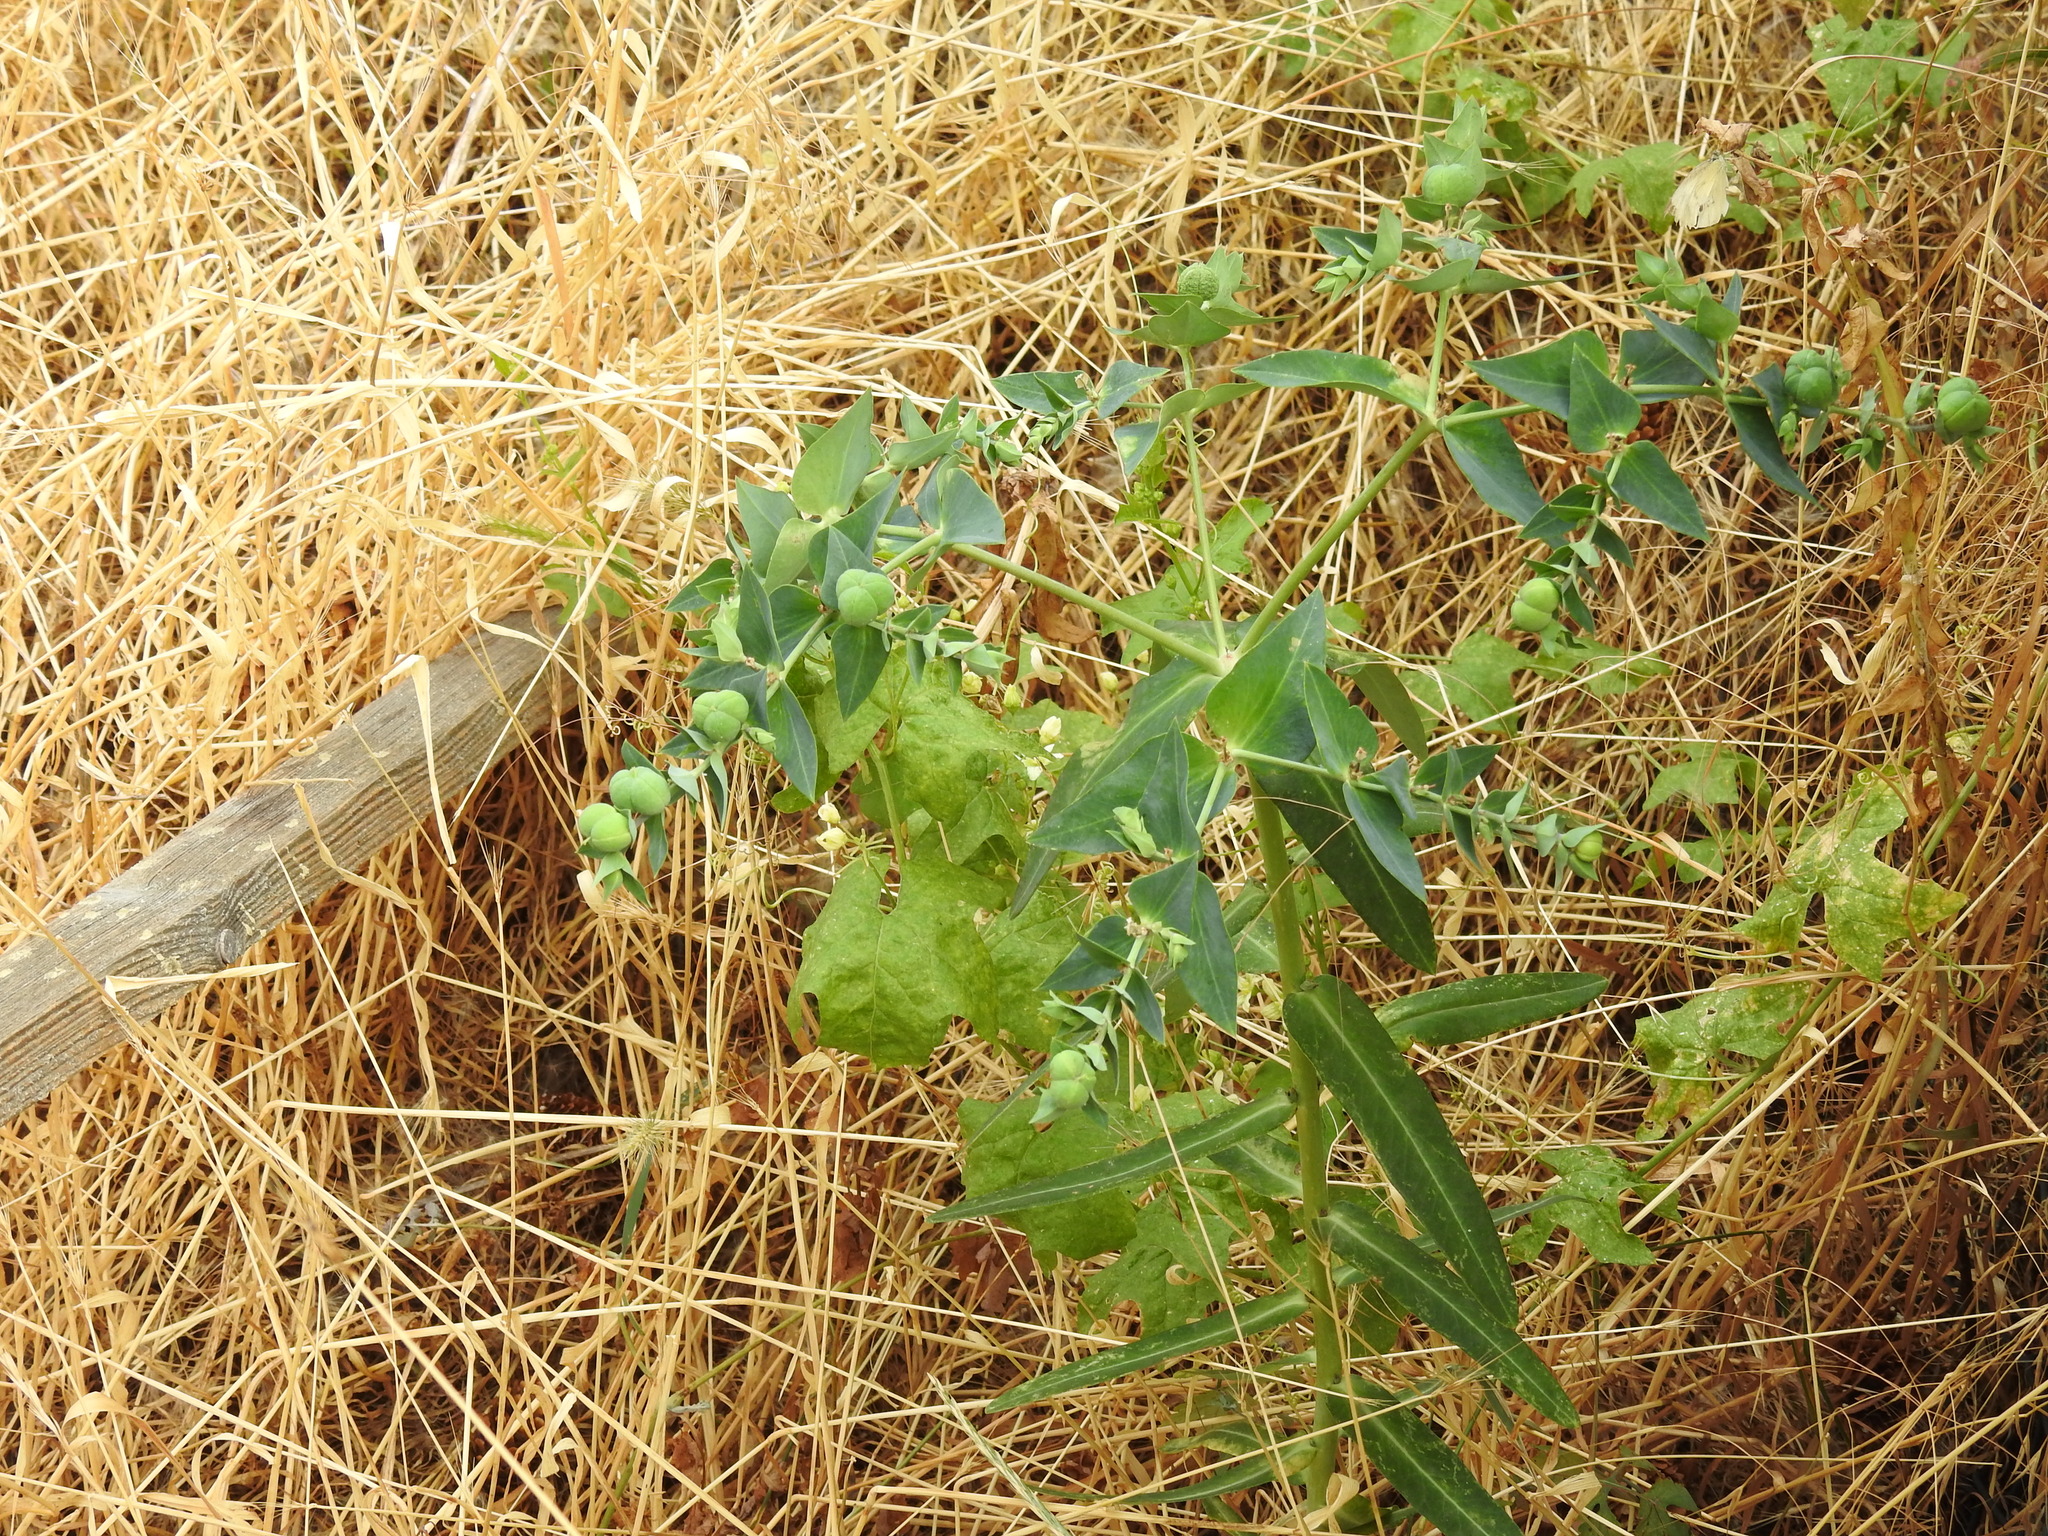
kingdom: Plantae
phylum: Tracheophyta
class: Magnoliopsida
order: Malpighiales
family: Euphorbiaceae
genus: Euphorbia
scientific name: Euphorbia lathyris
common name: Caper spurge
